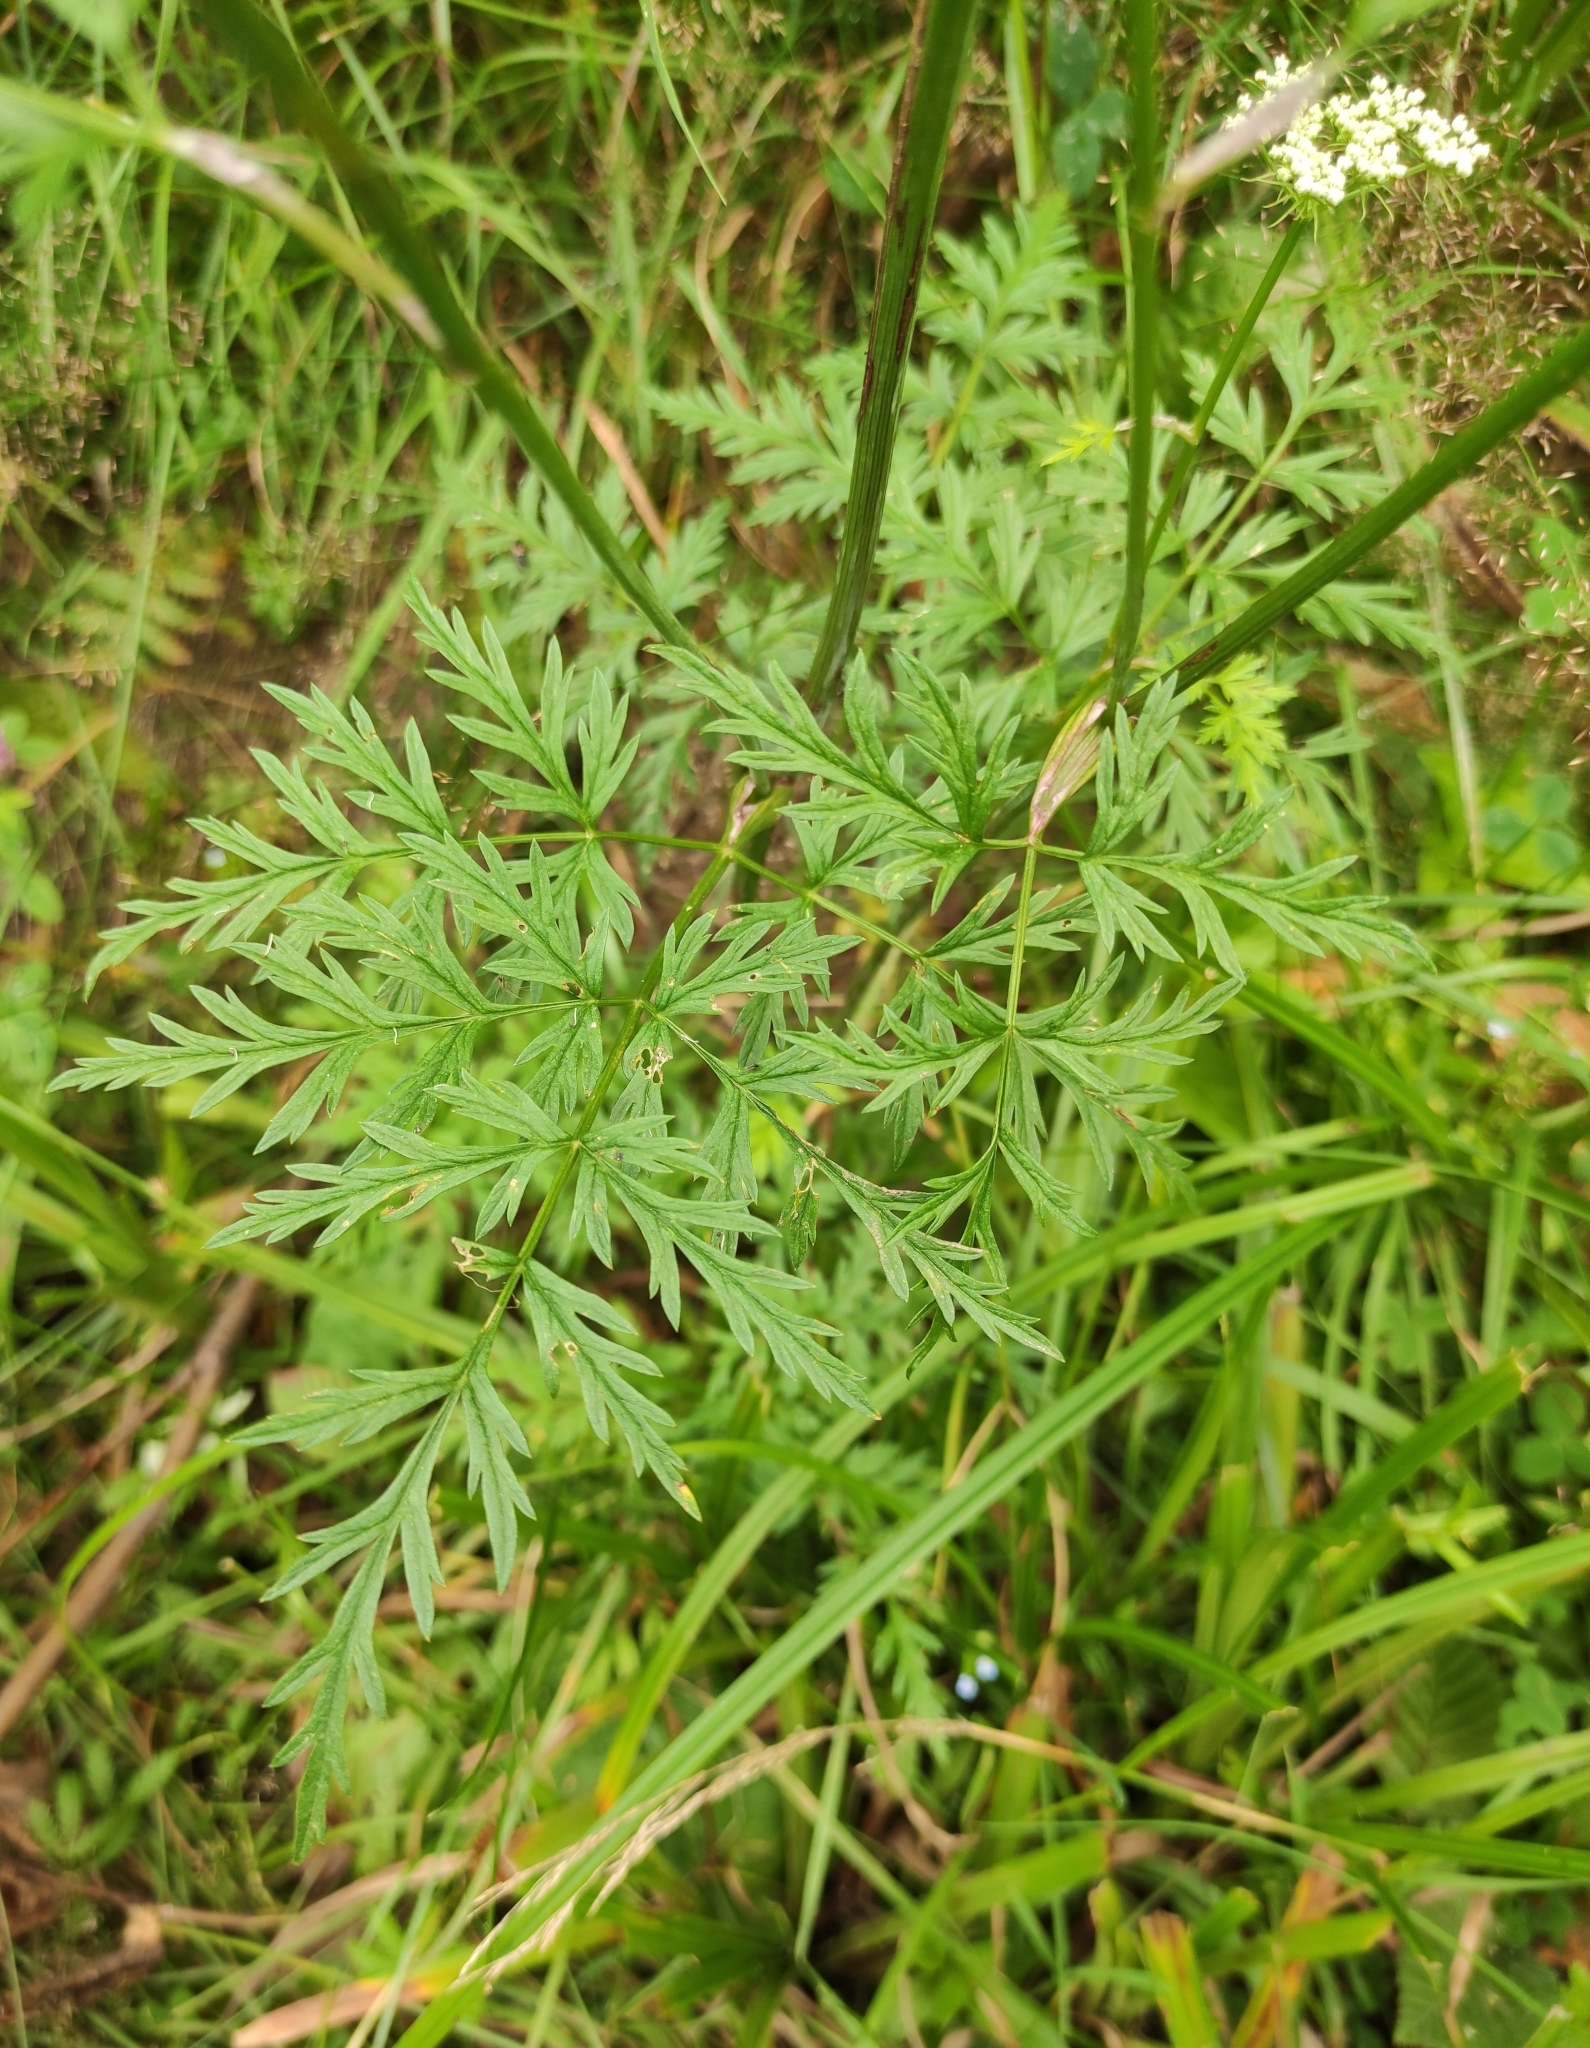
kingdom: Plantae
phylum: Tracheophyta
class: Magnoliopsida
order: Apiales
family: Apiaceae
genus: Conioselinum
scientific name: Conioselinum tataricum
